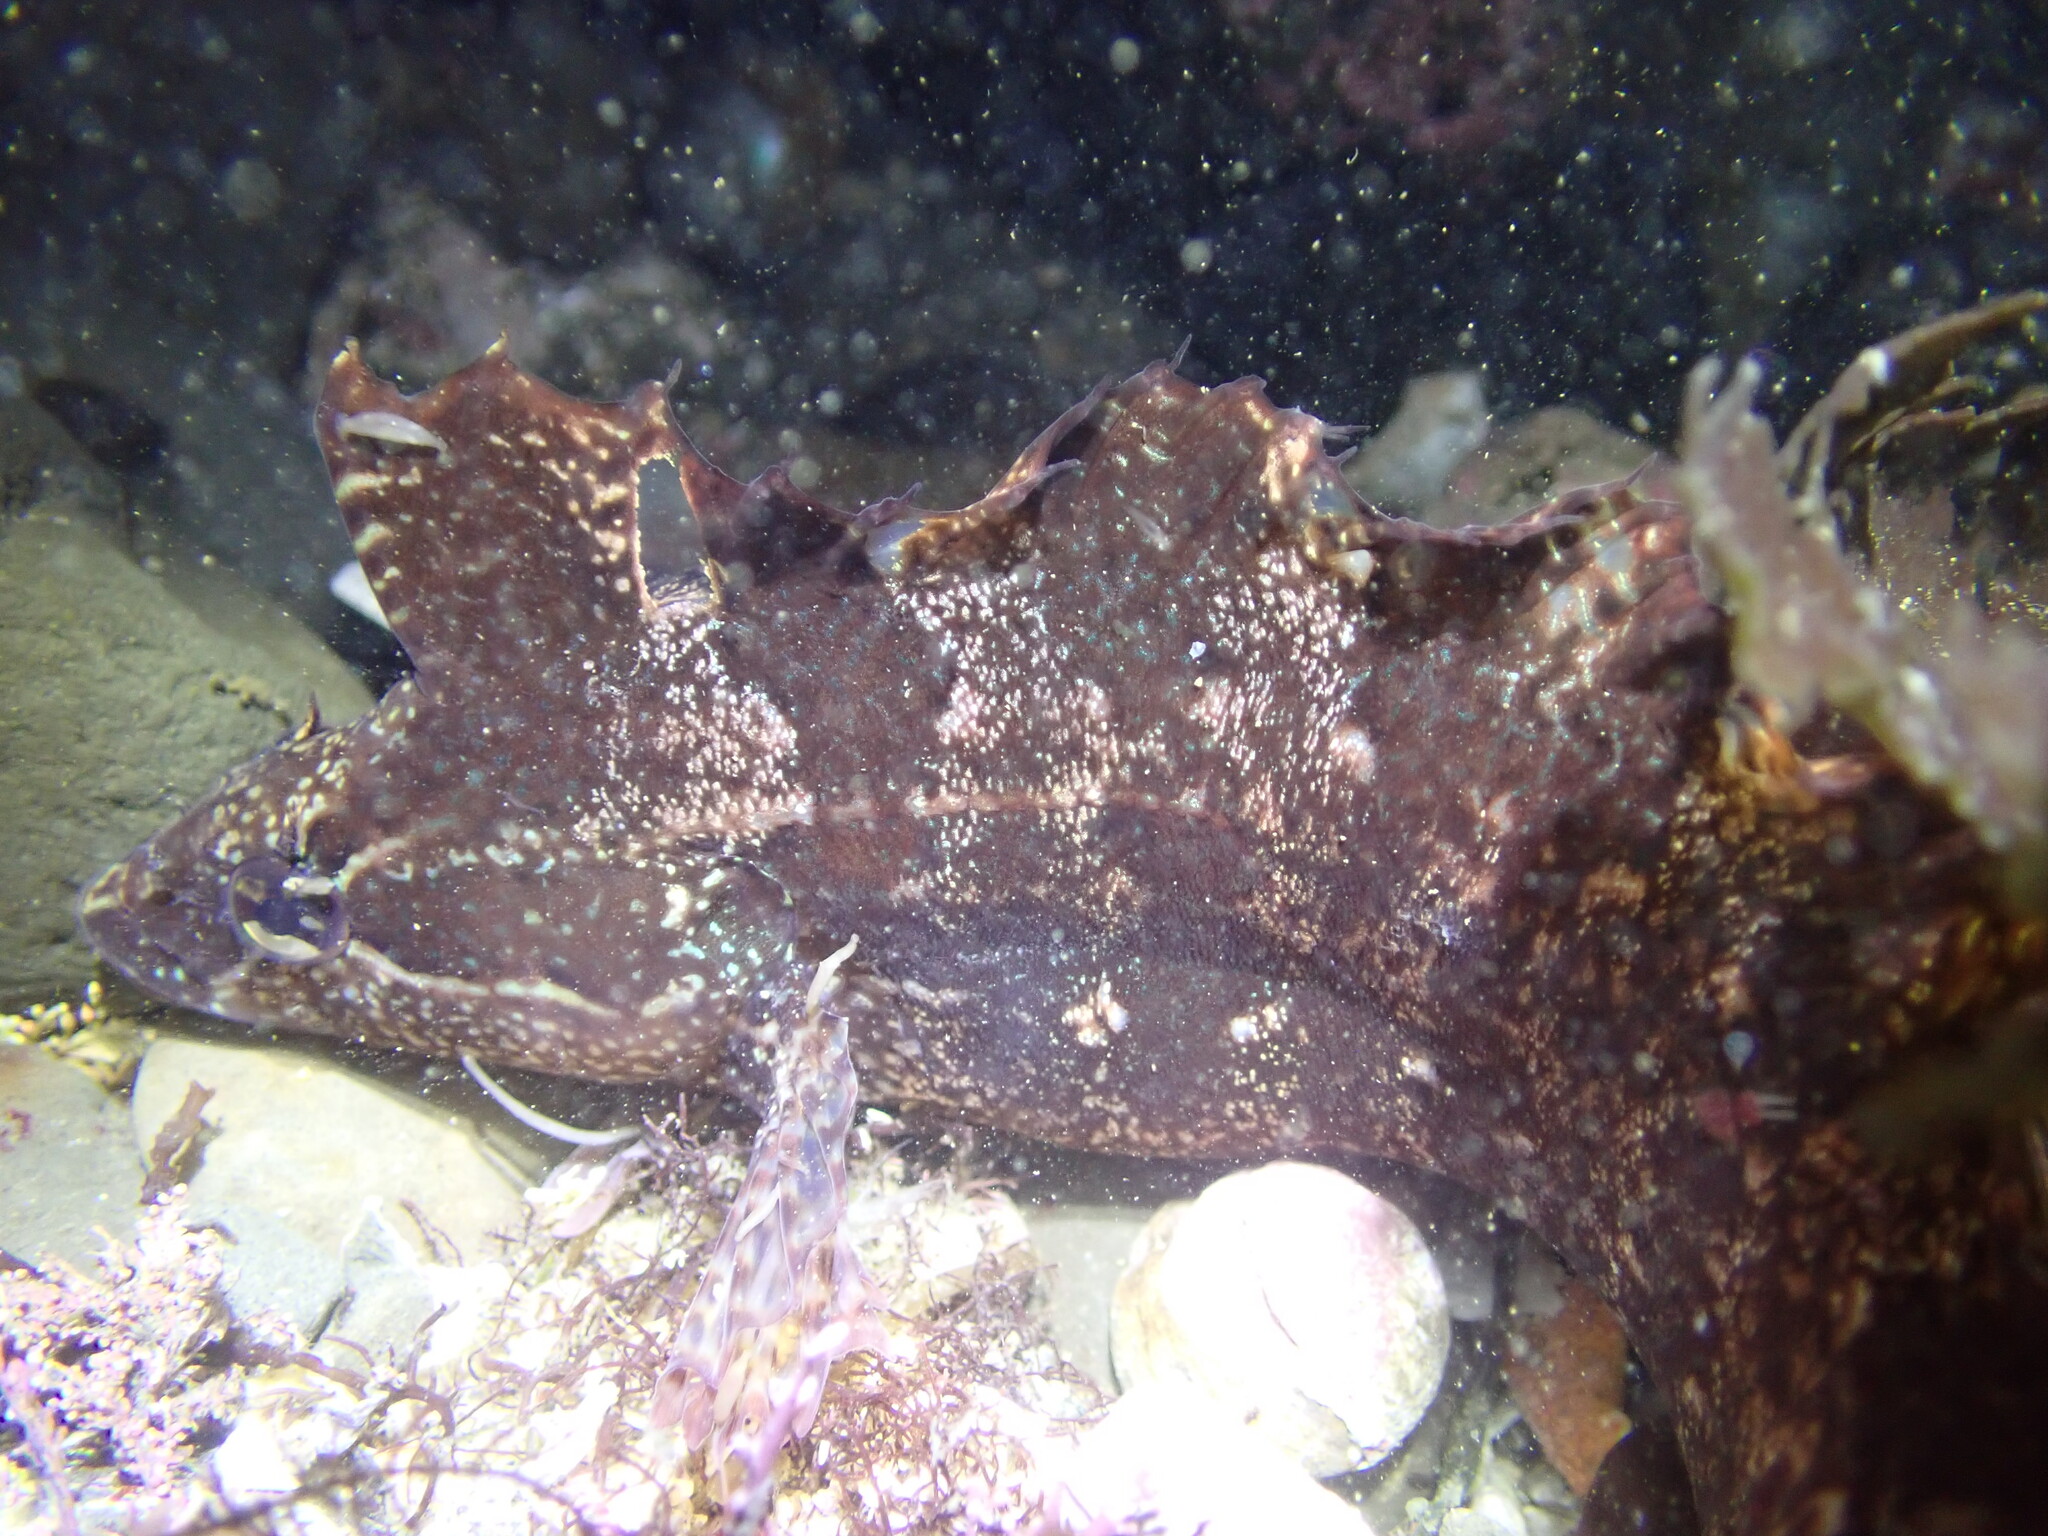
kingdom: Animalia
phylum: Chordata
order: Perciformes
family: Clinidae
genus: Gibbonsia
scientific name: Gibbonsia metzi
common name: Striped kelpfish
